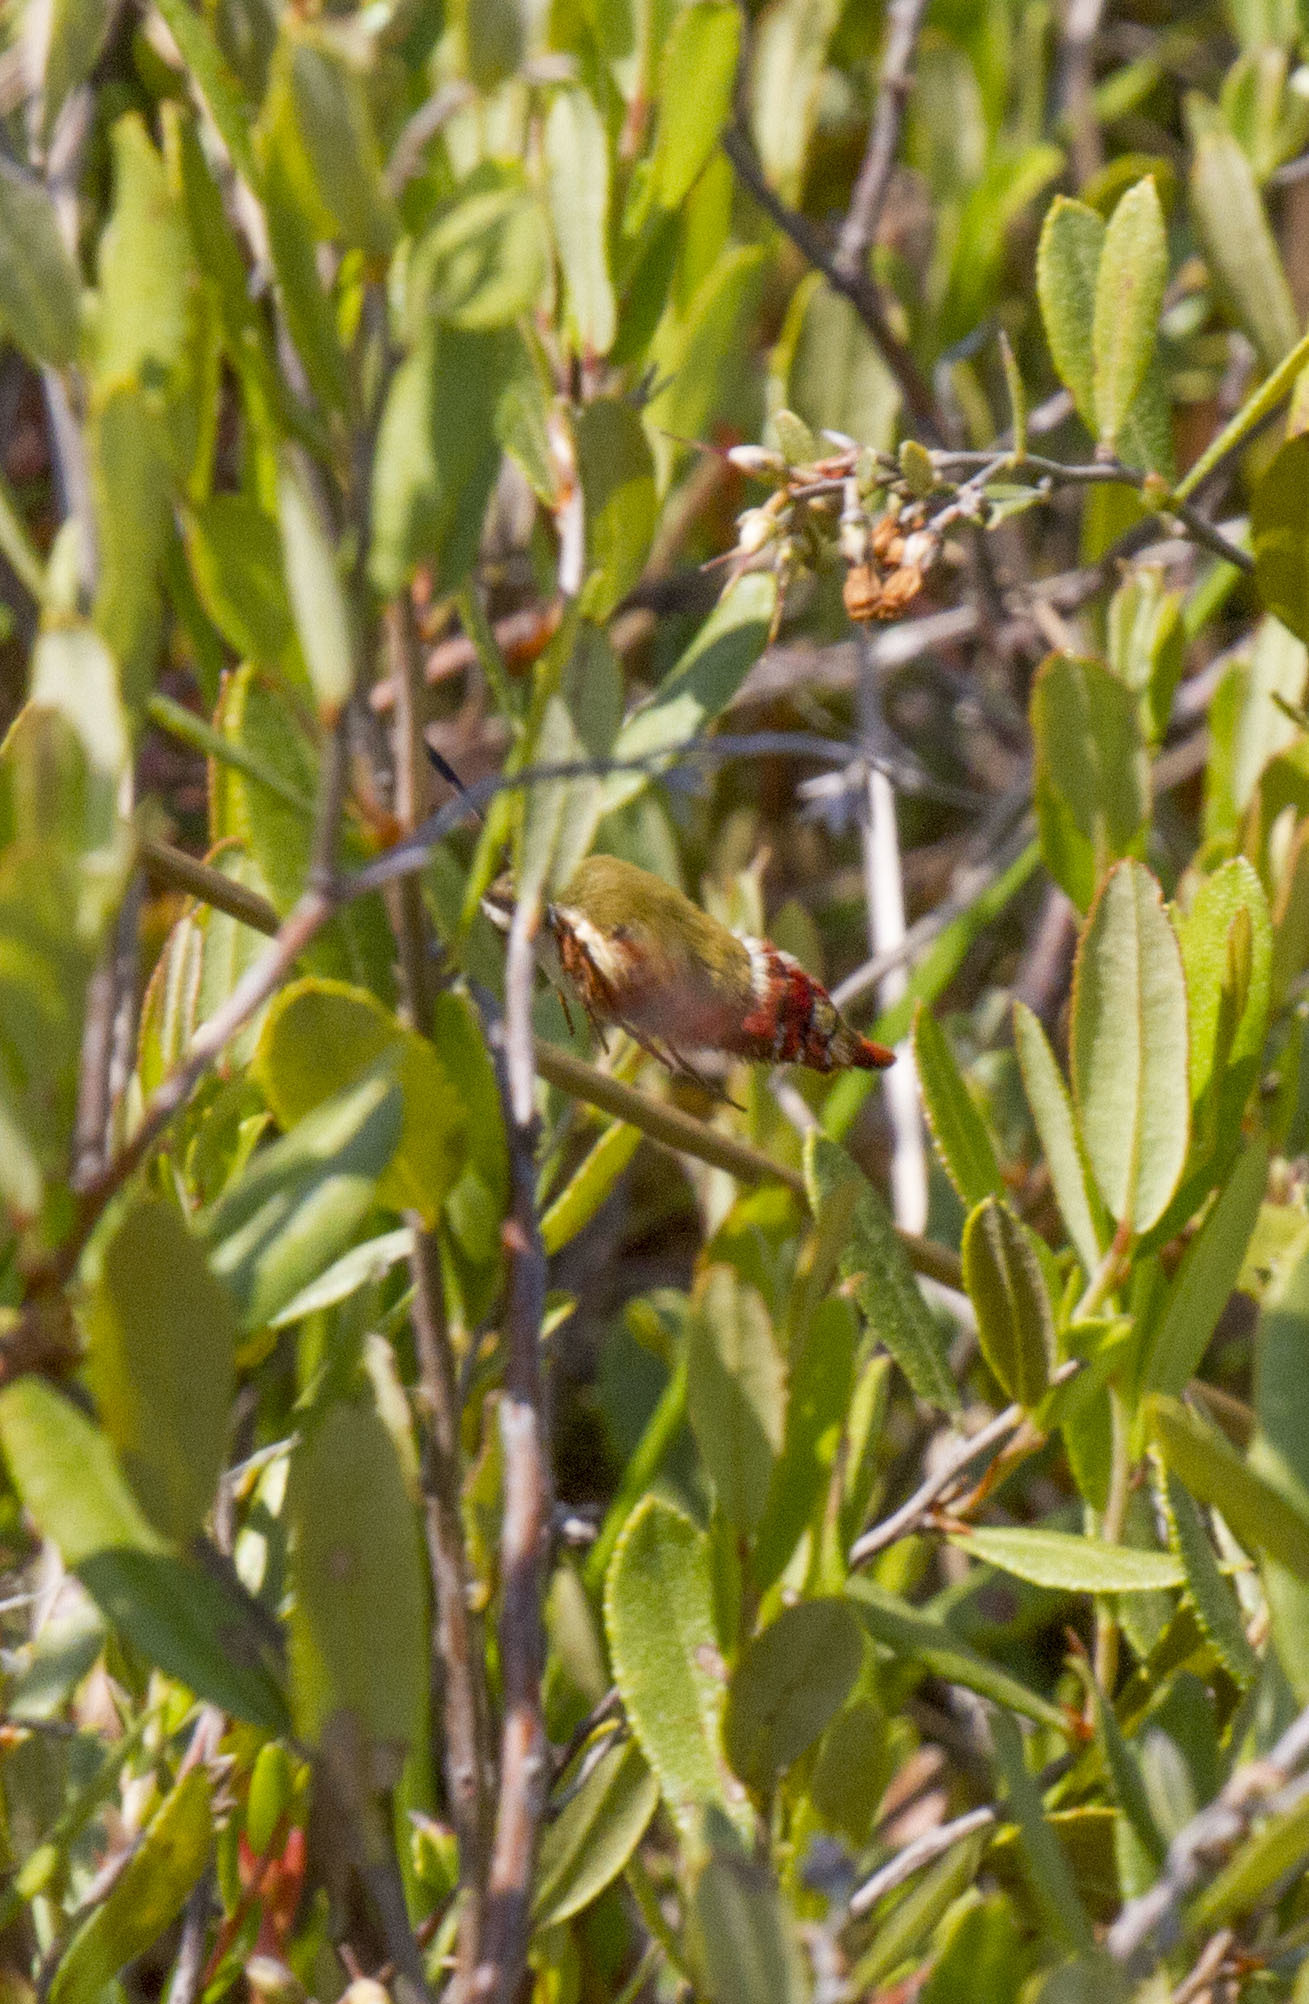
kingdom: Animalia
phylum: Arthropoda
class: Insecta
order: Lepidoptera
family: Sphingidae
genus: Hemaris
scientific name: Hemaris gracilis
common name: Graceful clearwing
